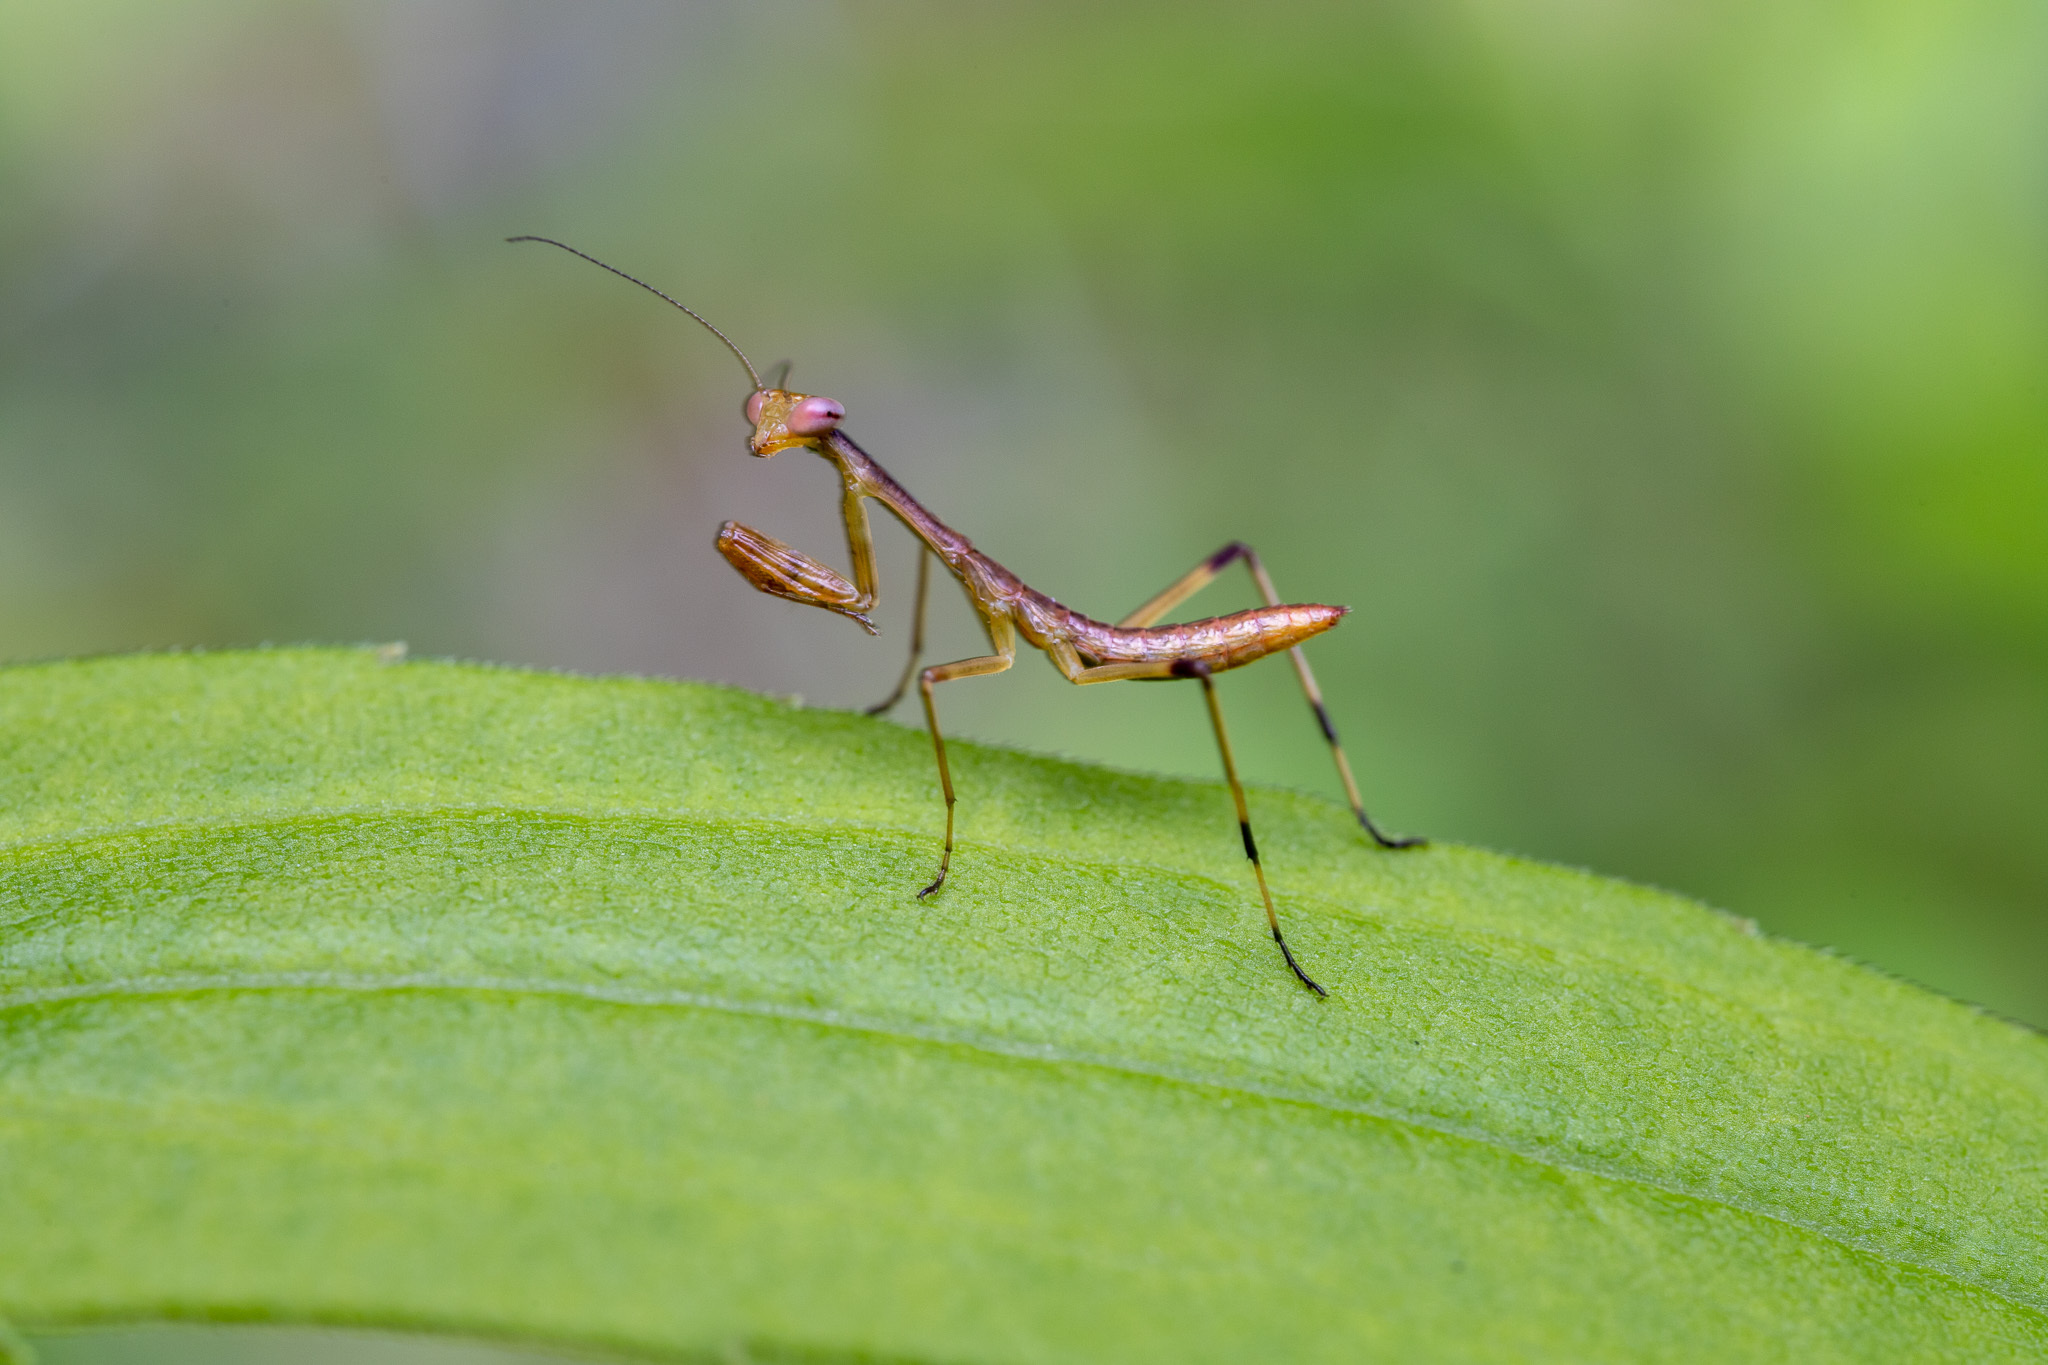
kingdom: Animalia
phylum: Arthropoda
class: Insecta
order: Mantodea
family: Mantidae
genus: Stagmomantis
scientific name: Stagmomantis carolina
